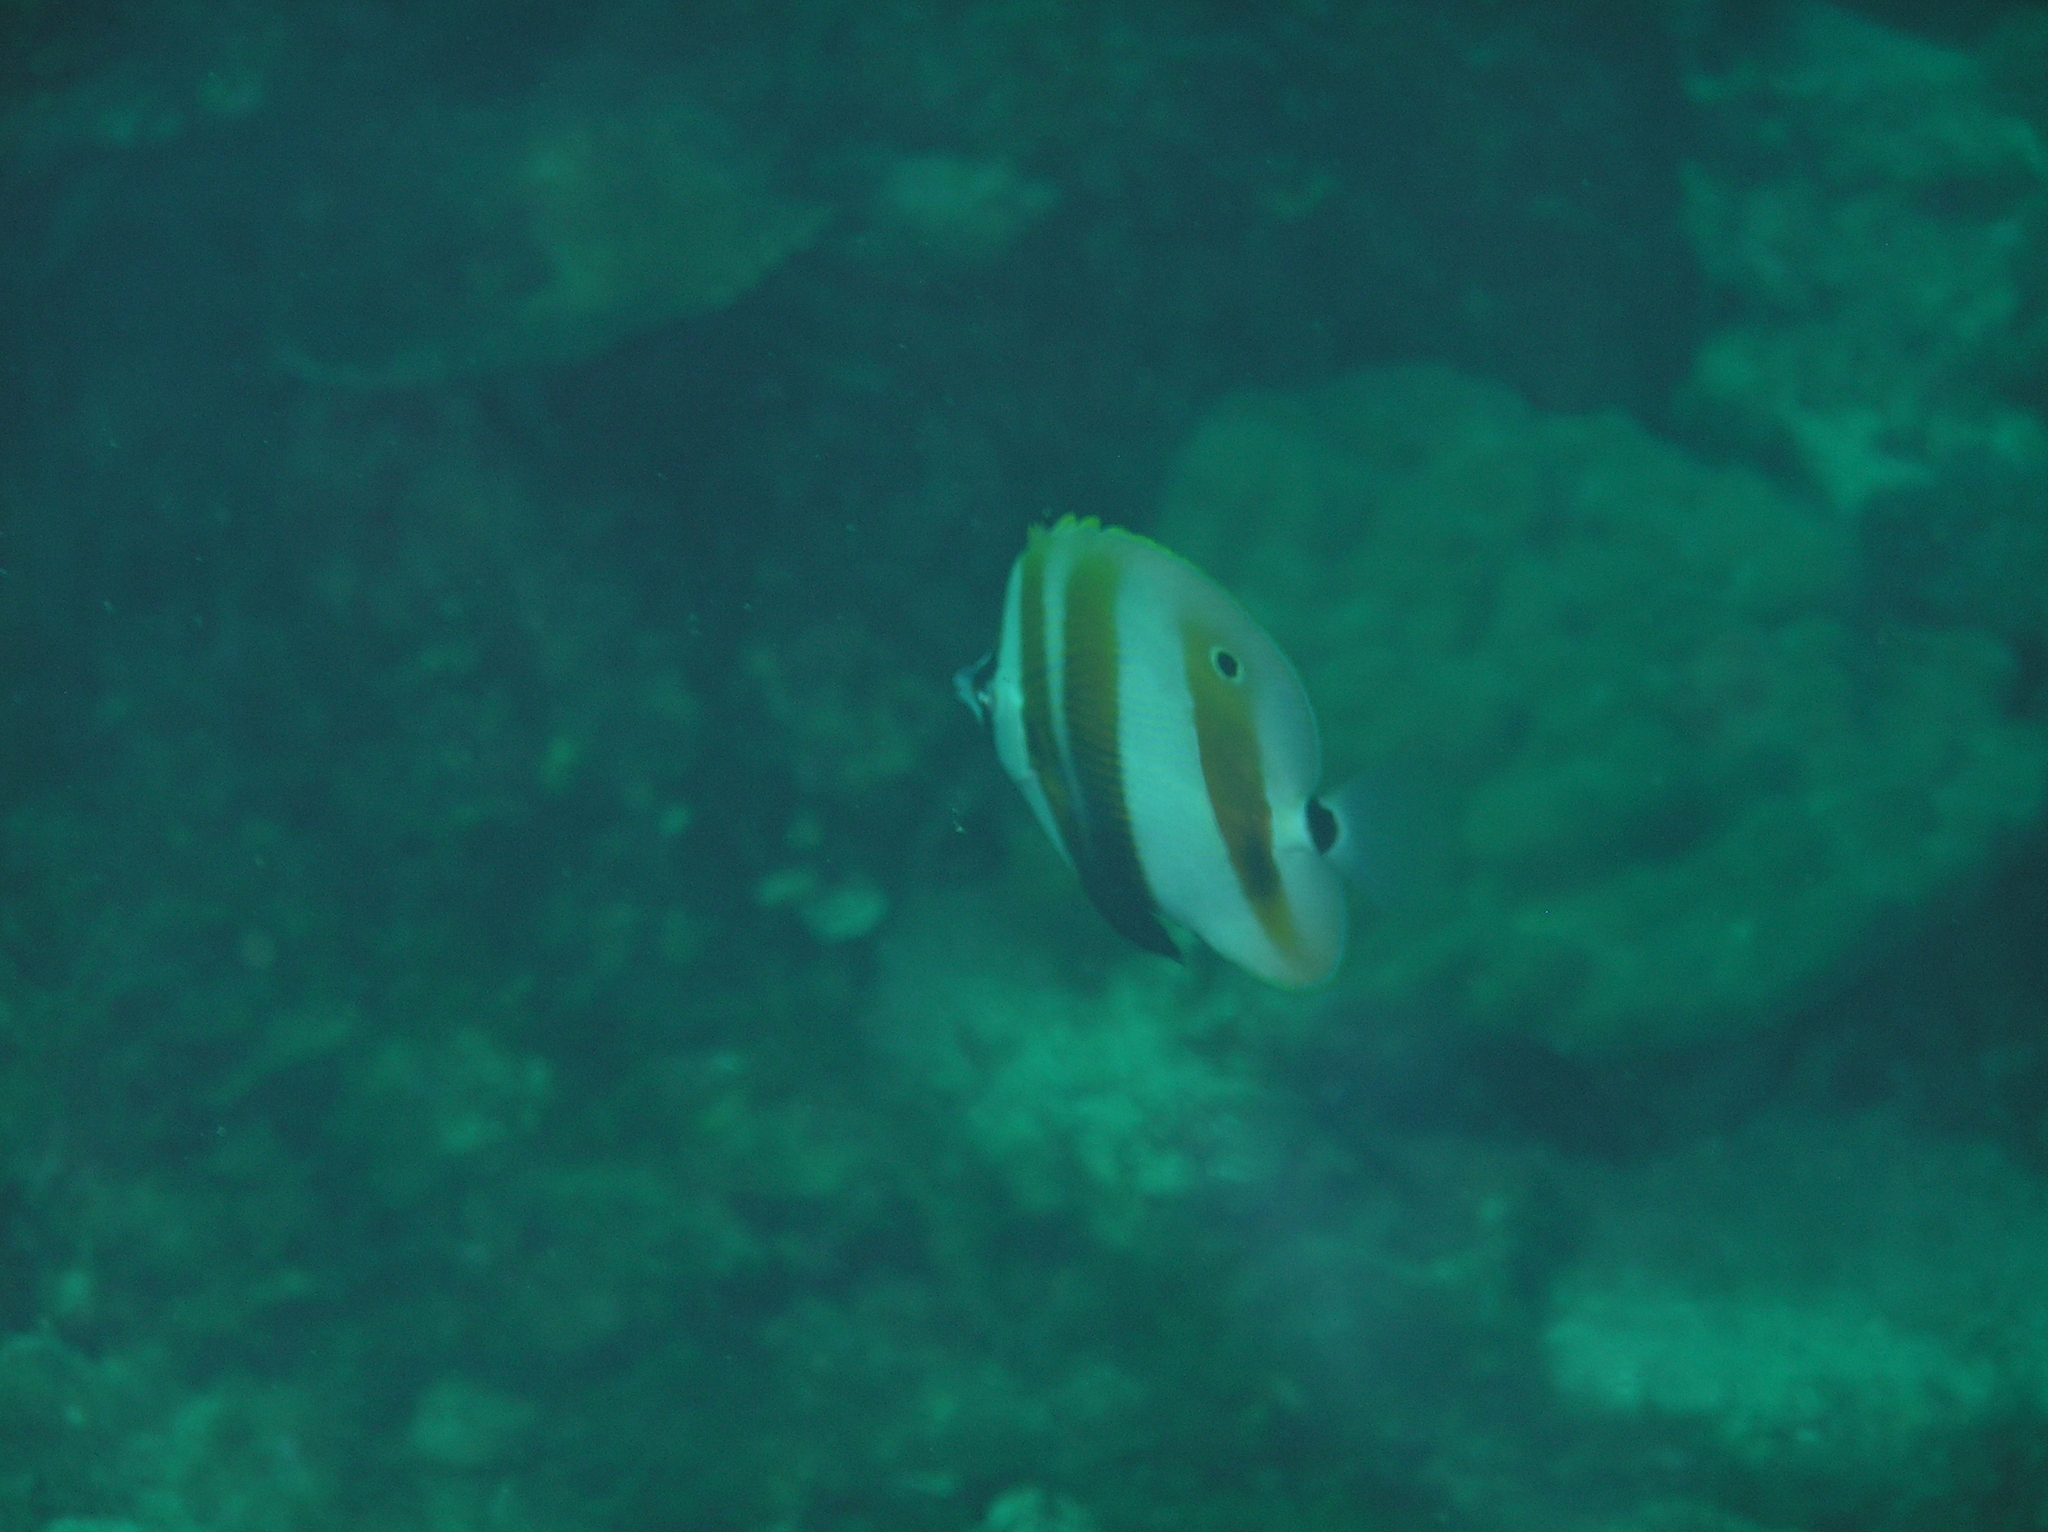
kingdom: Animalia
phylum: Chordata
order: Perciformes
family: Chaetodontidae
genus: Coradion
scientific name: Coradion chrysozonus
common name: Orange-banded coralfish
